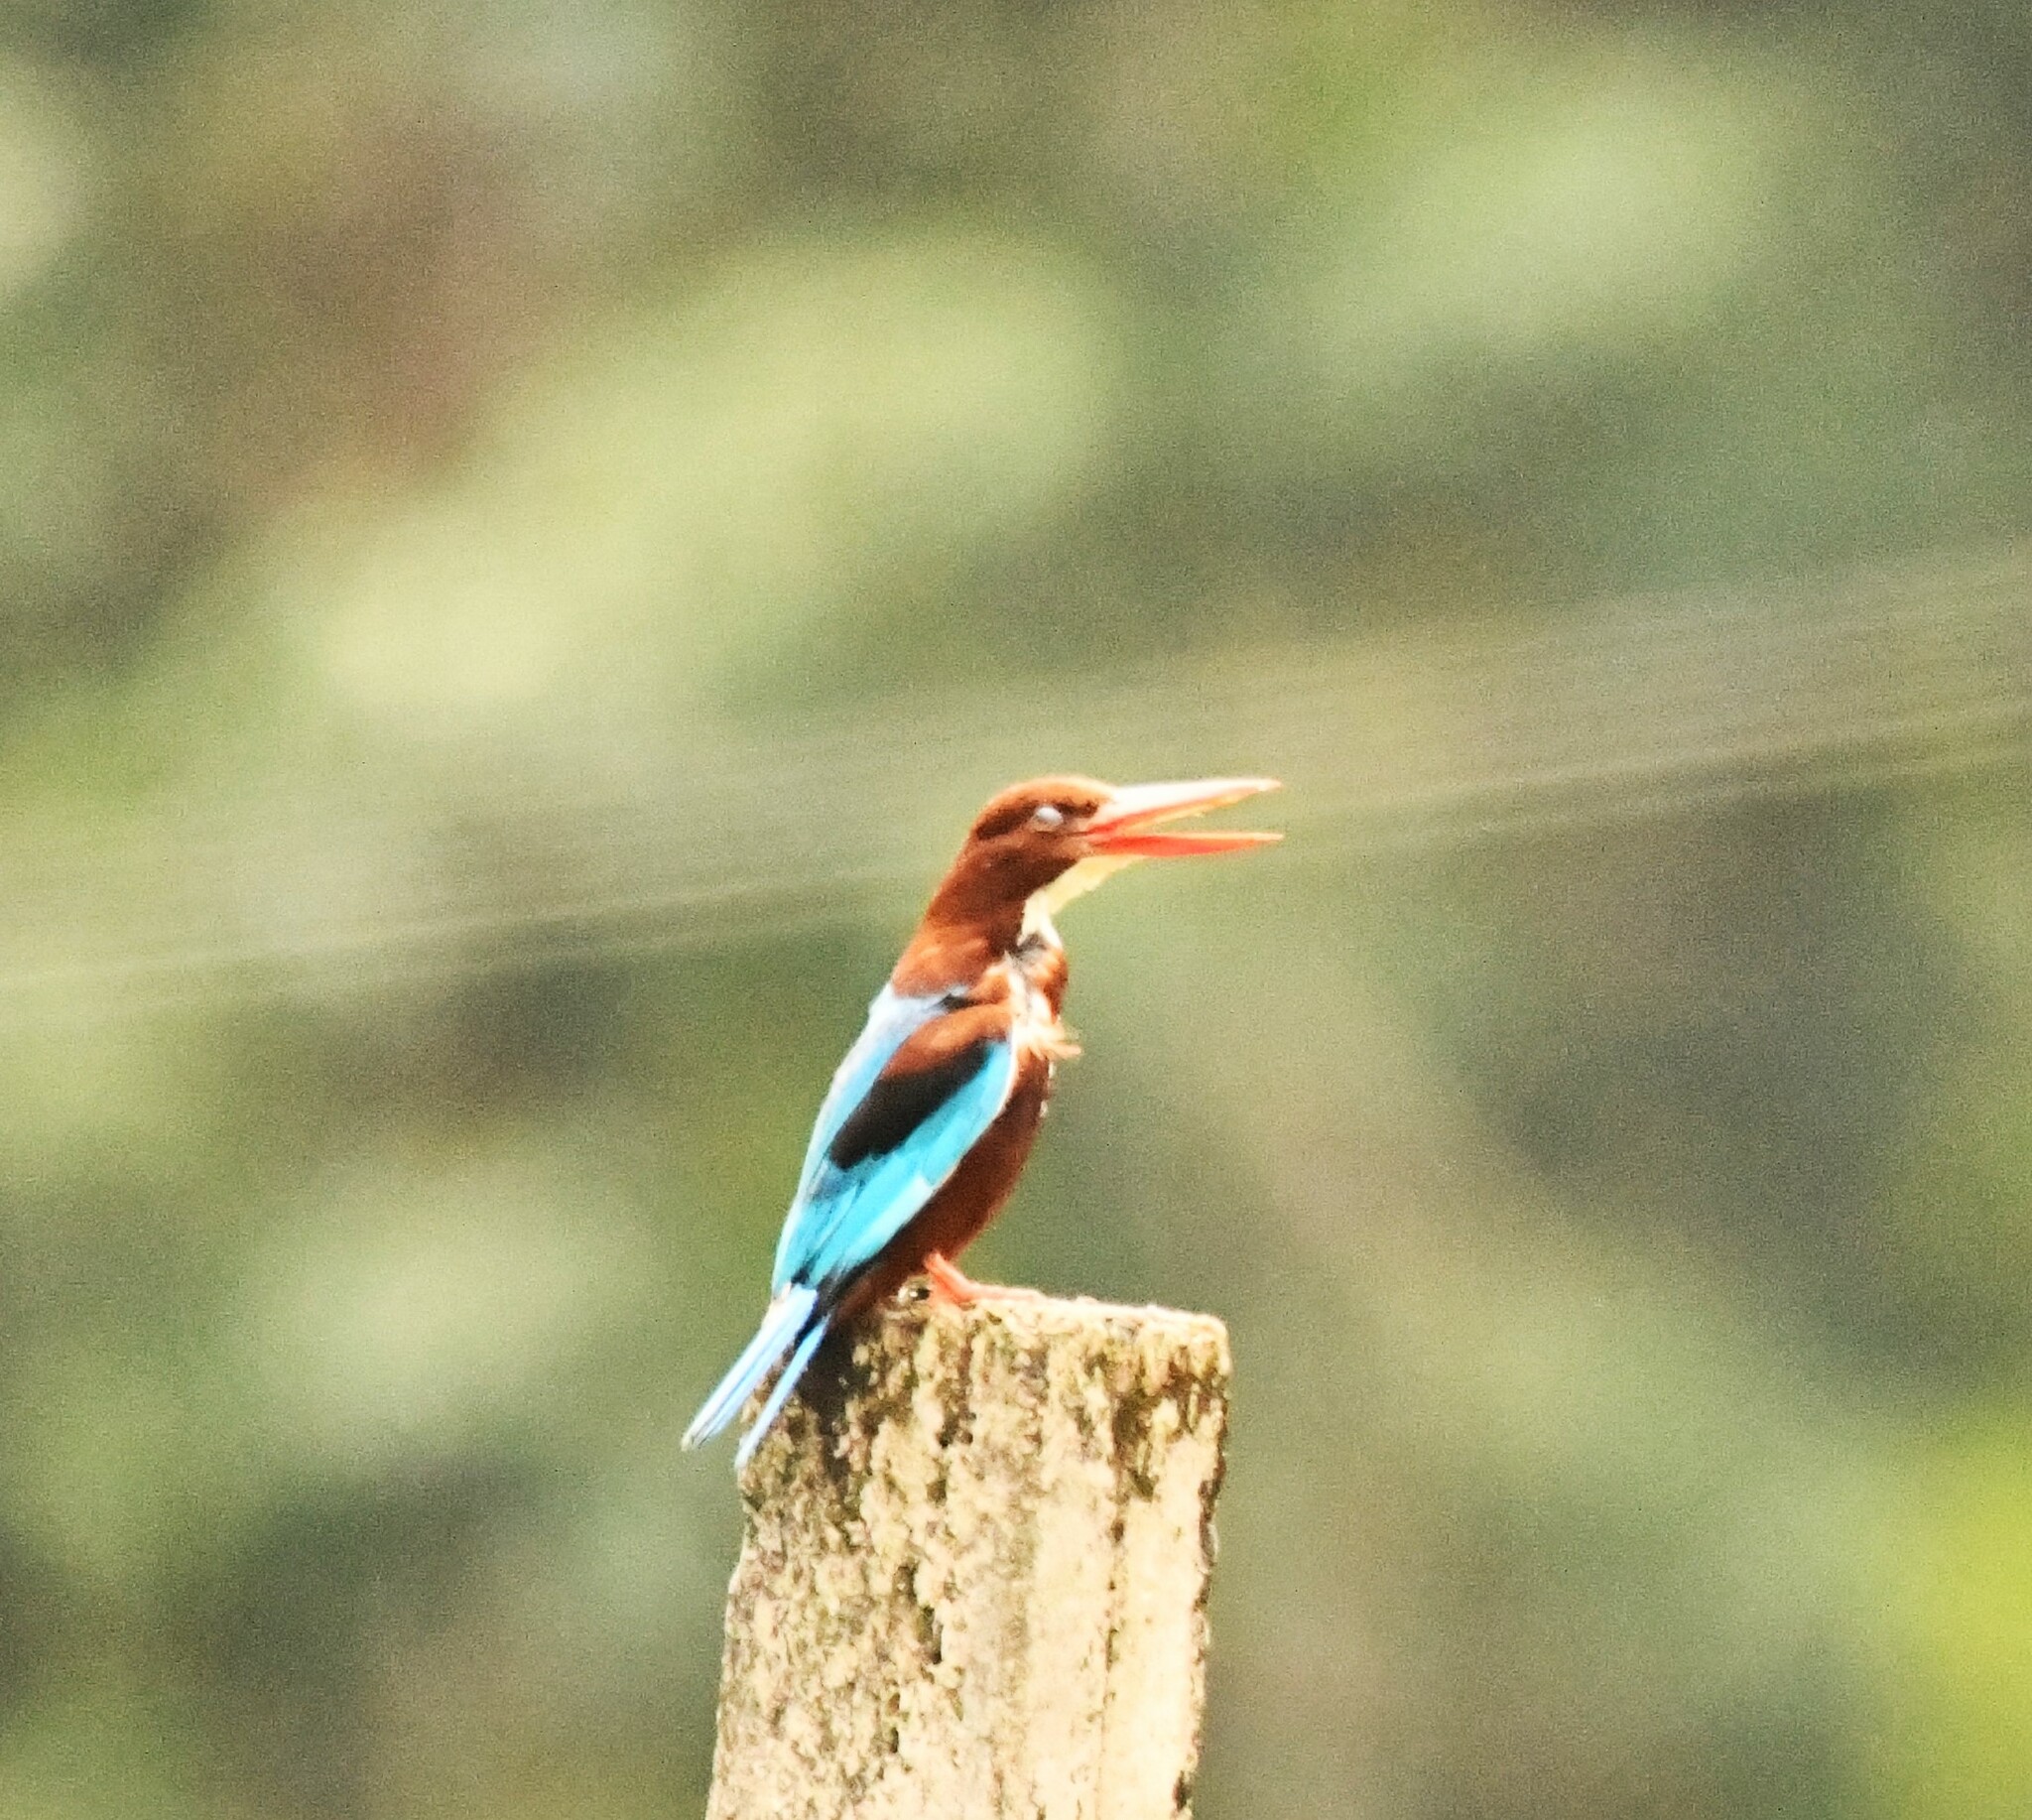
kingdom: Animalia
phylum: Chordata
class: Aves
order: Coraciiformes
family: Alcedinidae
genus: Halcyon
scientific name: Halcyon smyrnensis
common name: White-throated kingfisher
